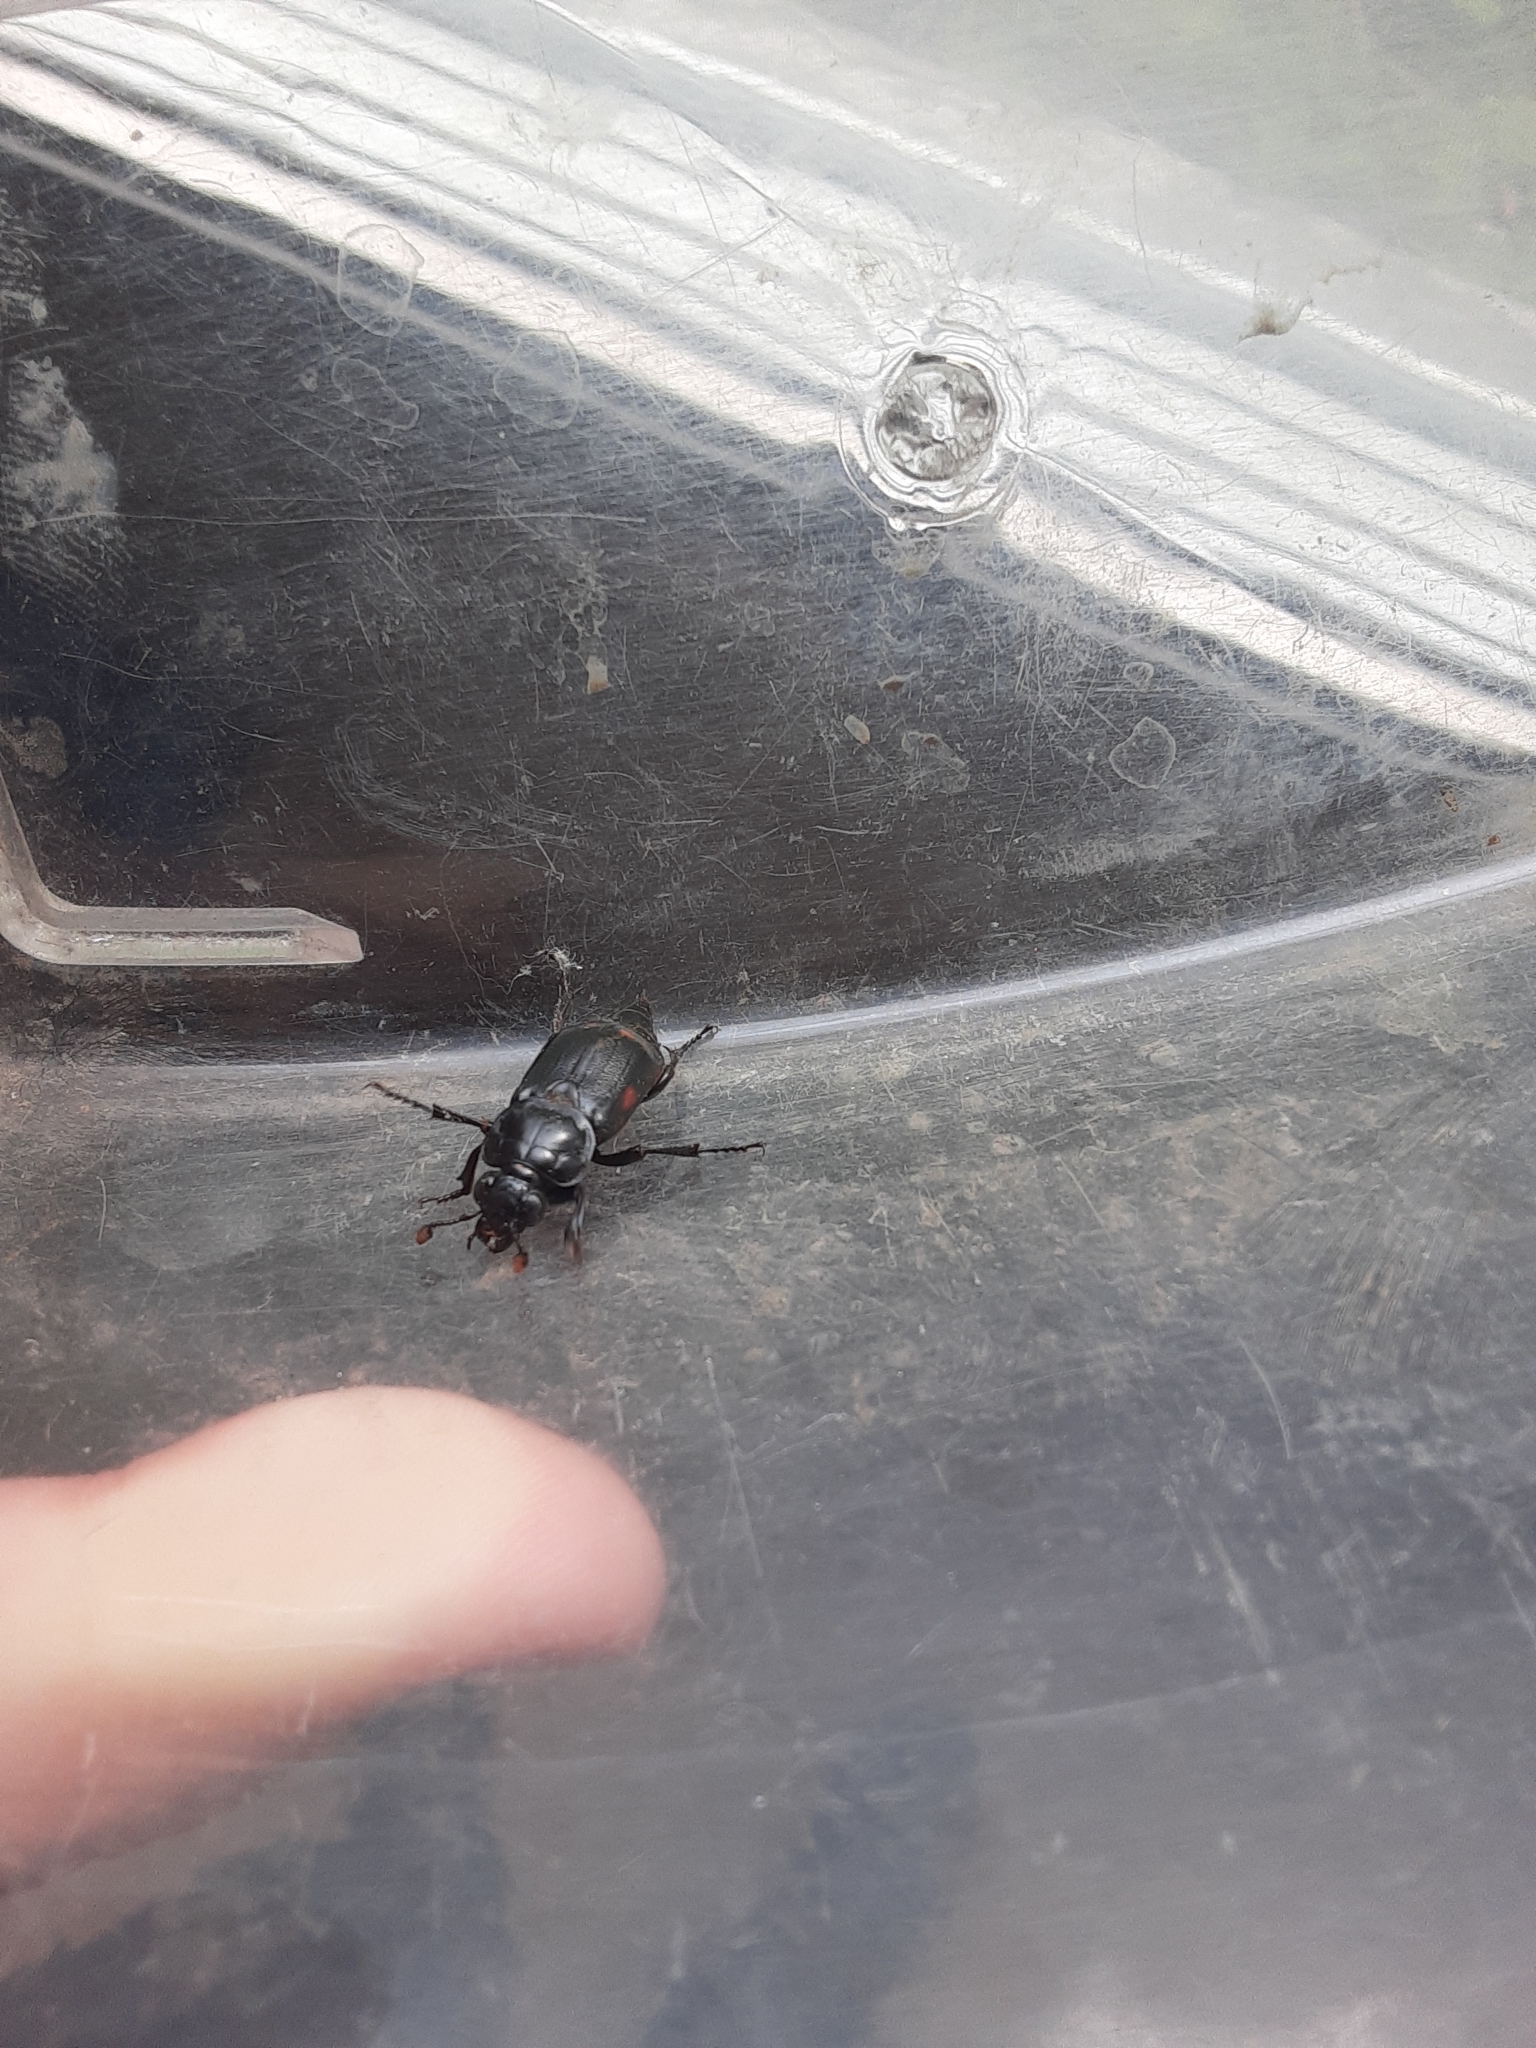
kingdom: Animalia
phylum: Arthropoda
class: Insecta
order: Coleoptera
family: Staphylinidae
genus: Nicrophorus
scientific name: Nicrophorus pustulatus
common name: Pustulated carrion beetle
